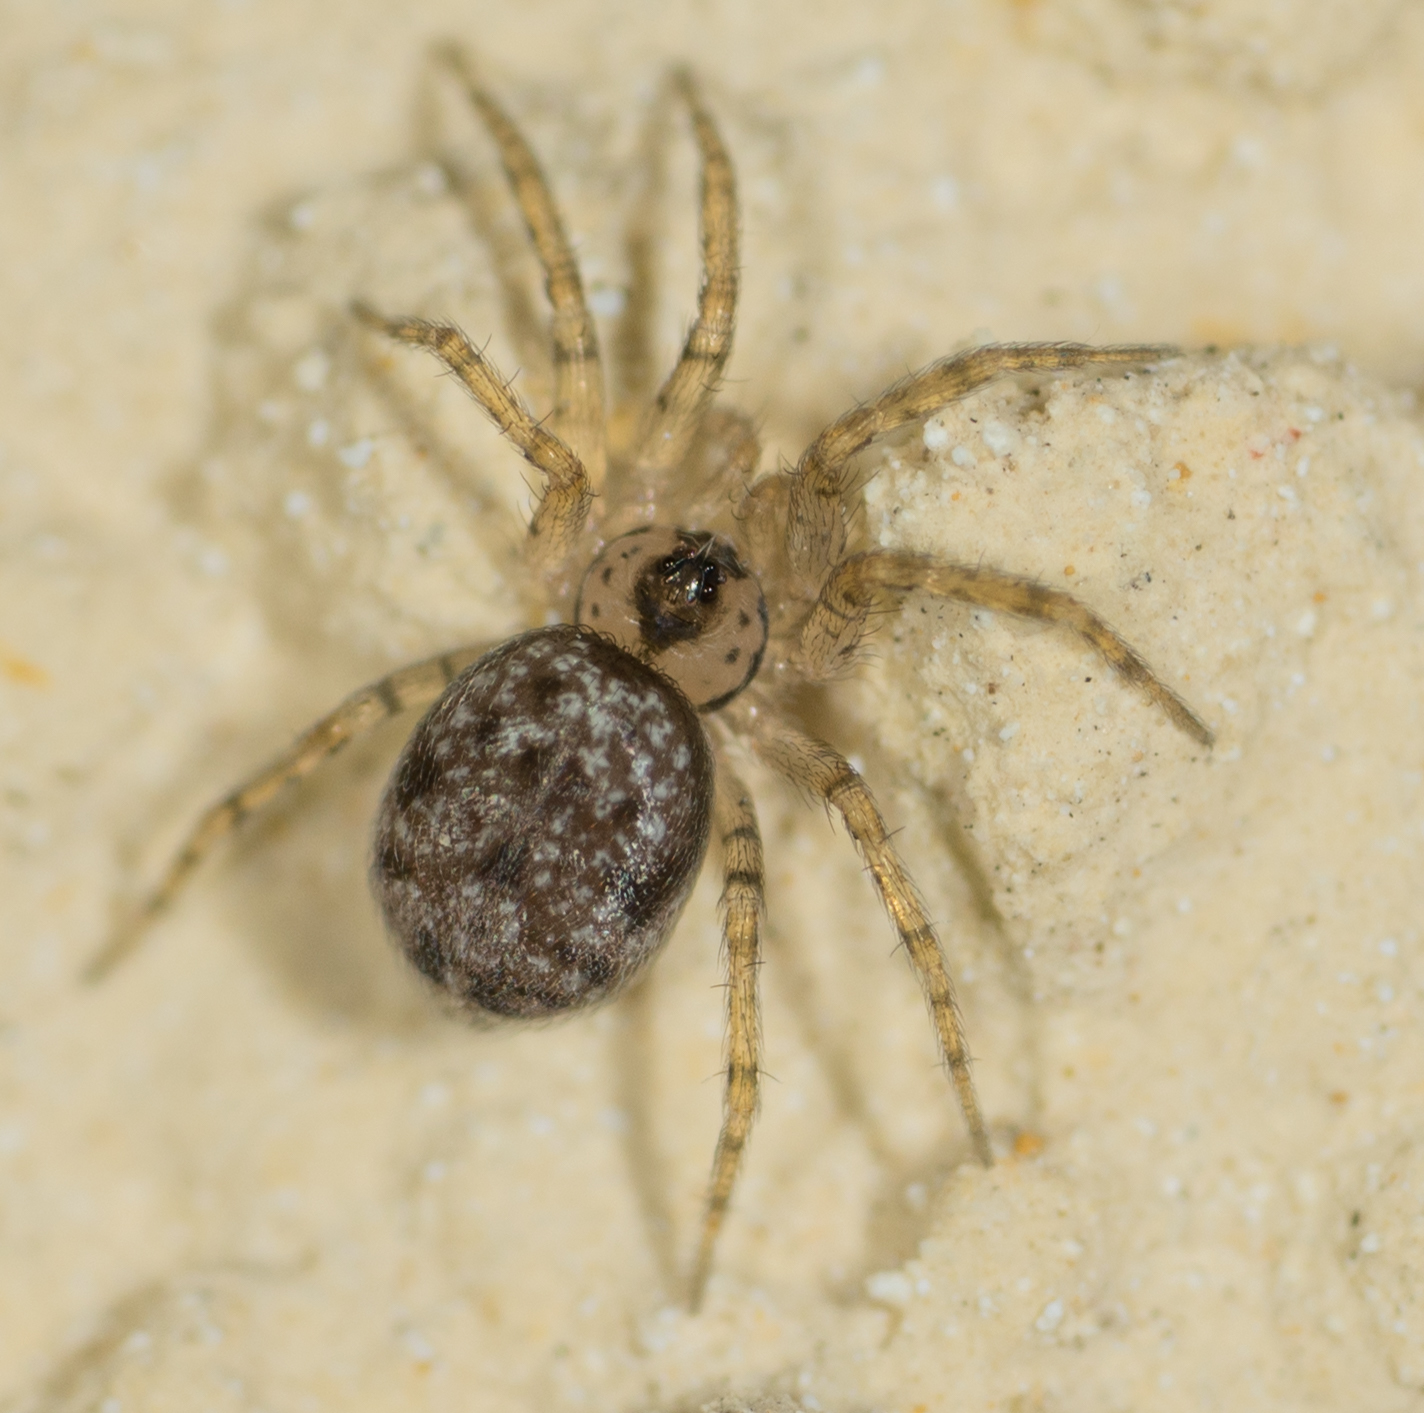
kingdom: Animalia
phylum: Arthropoda
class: Arachnida
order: Araneae
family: Oecobiidae
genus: Oecobius
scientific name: Oecobius navus
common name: Flatmesh weaver
